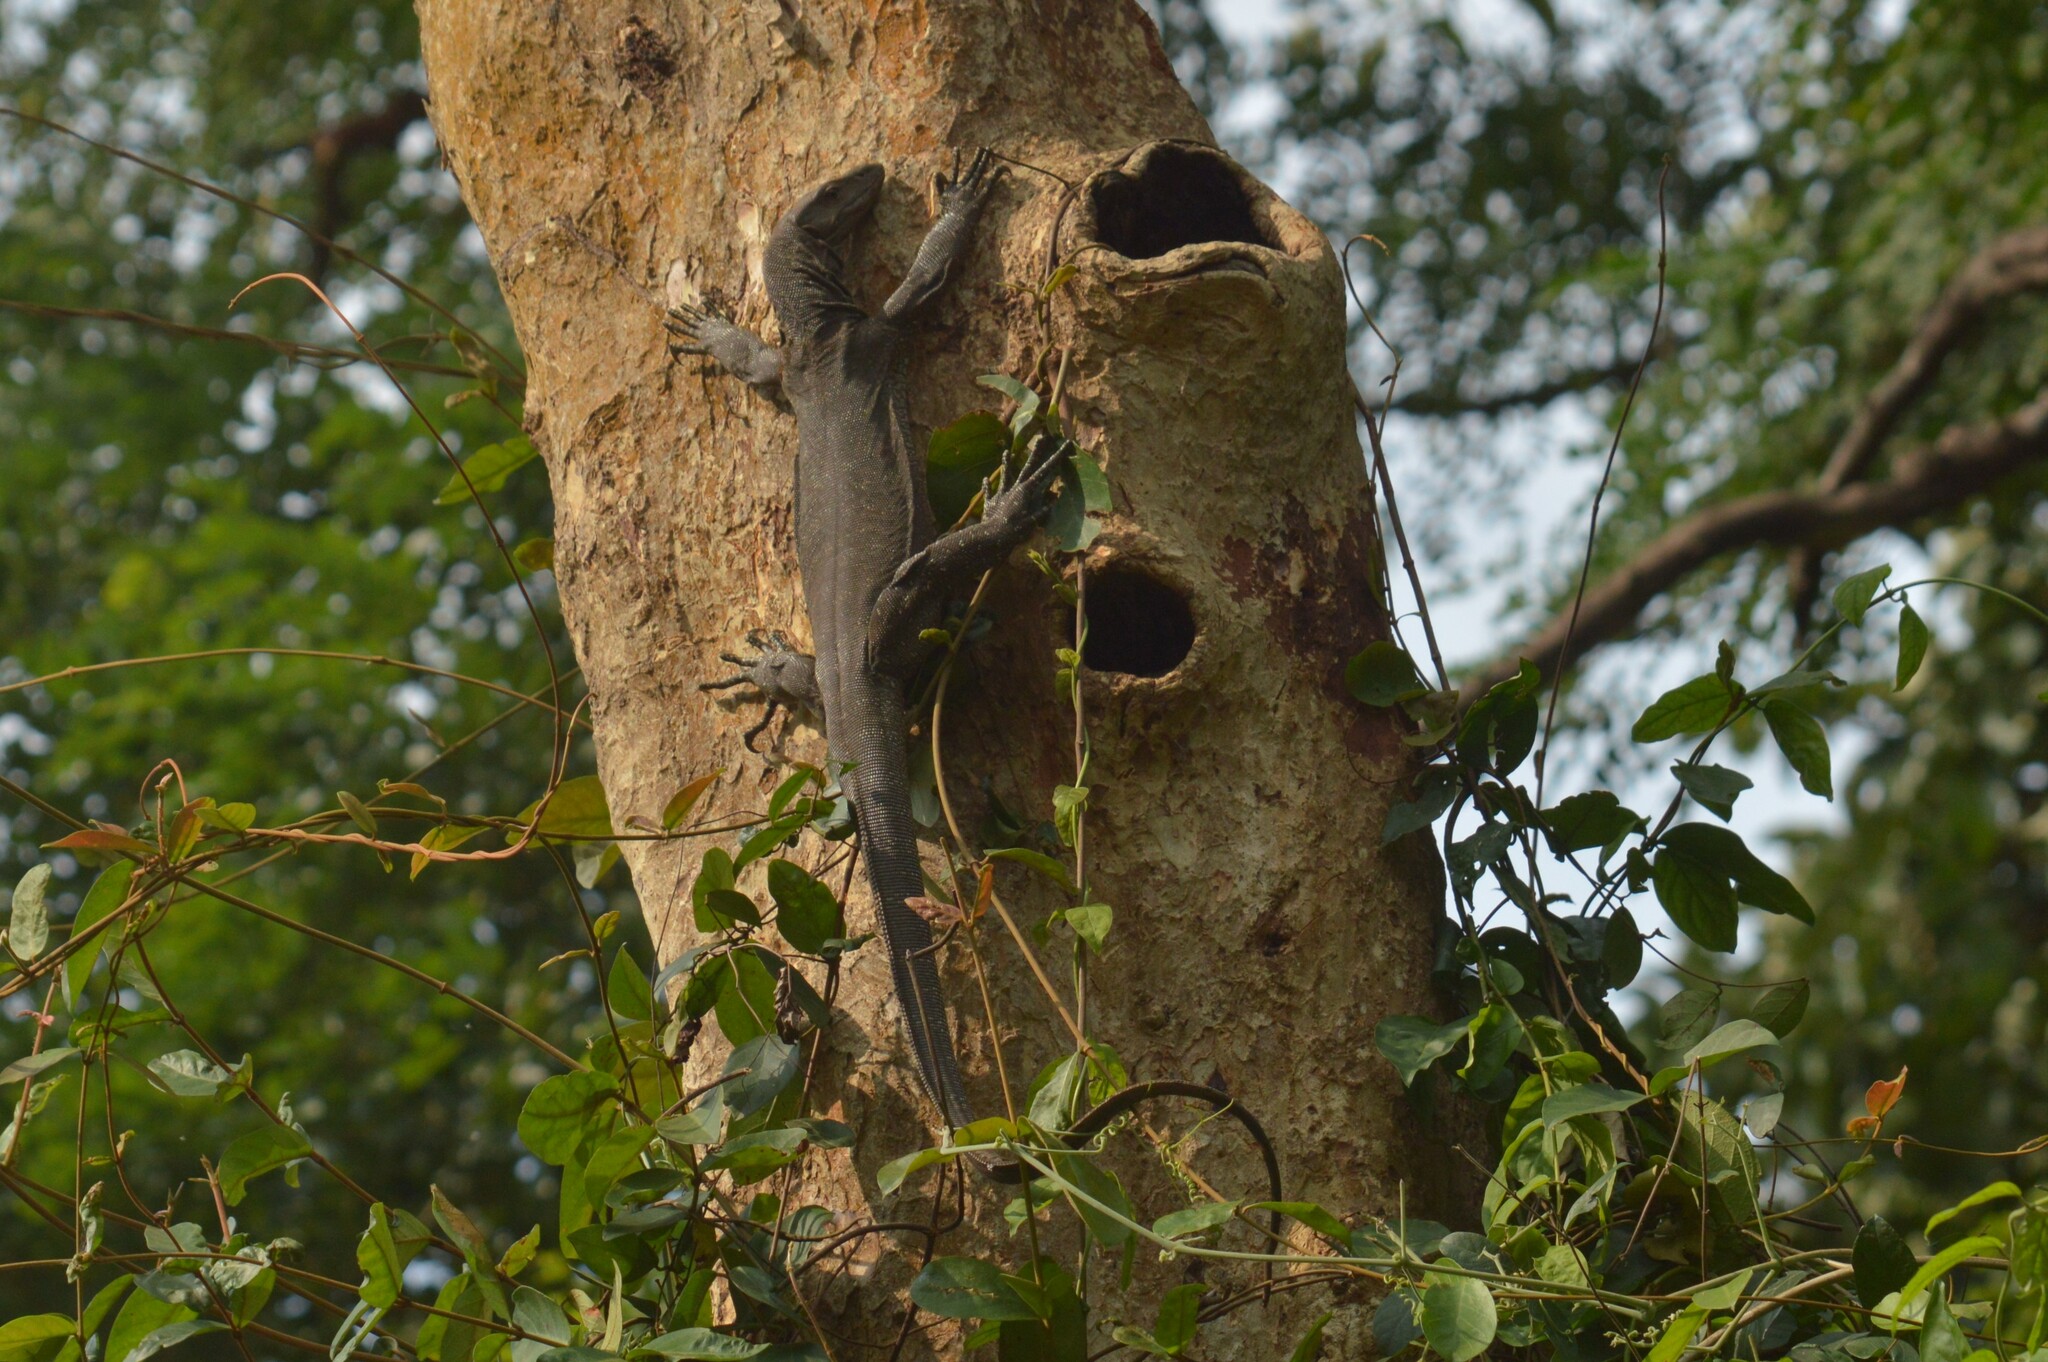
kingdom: Animalia
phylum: Chordata
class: Squamata
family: Varanidae
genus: Varanus
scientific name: Varanus bengalensis
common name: Bengal monitor
